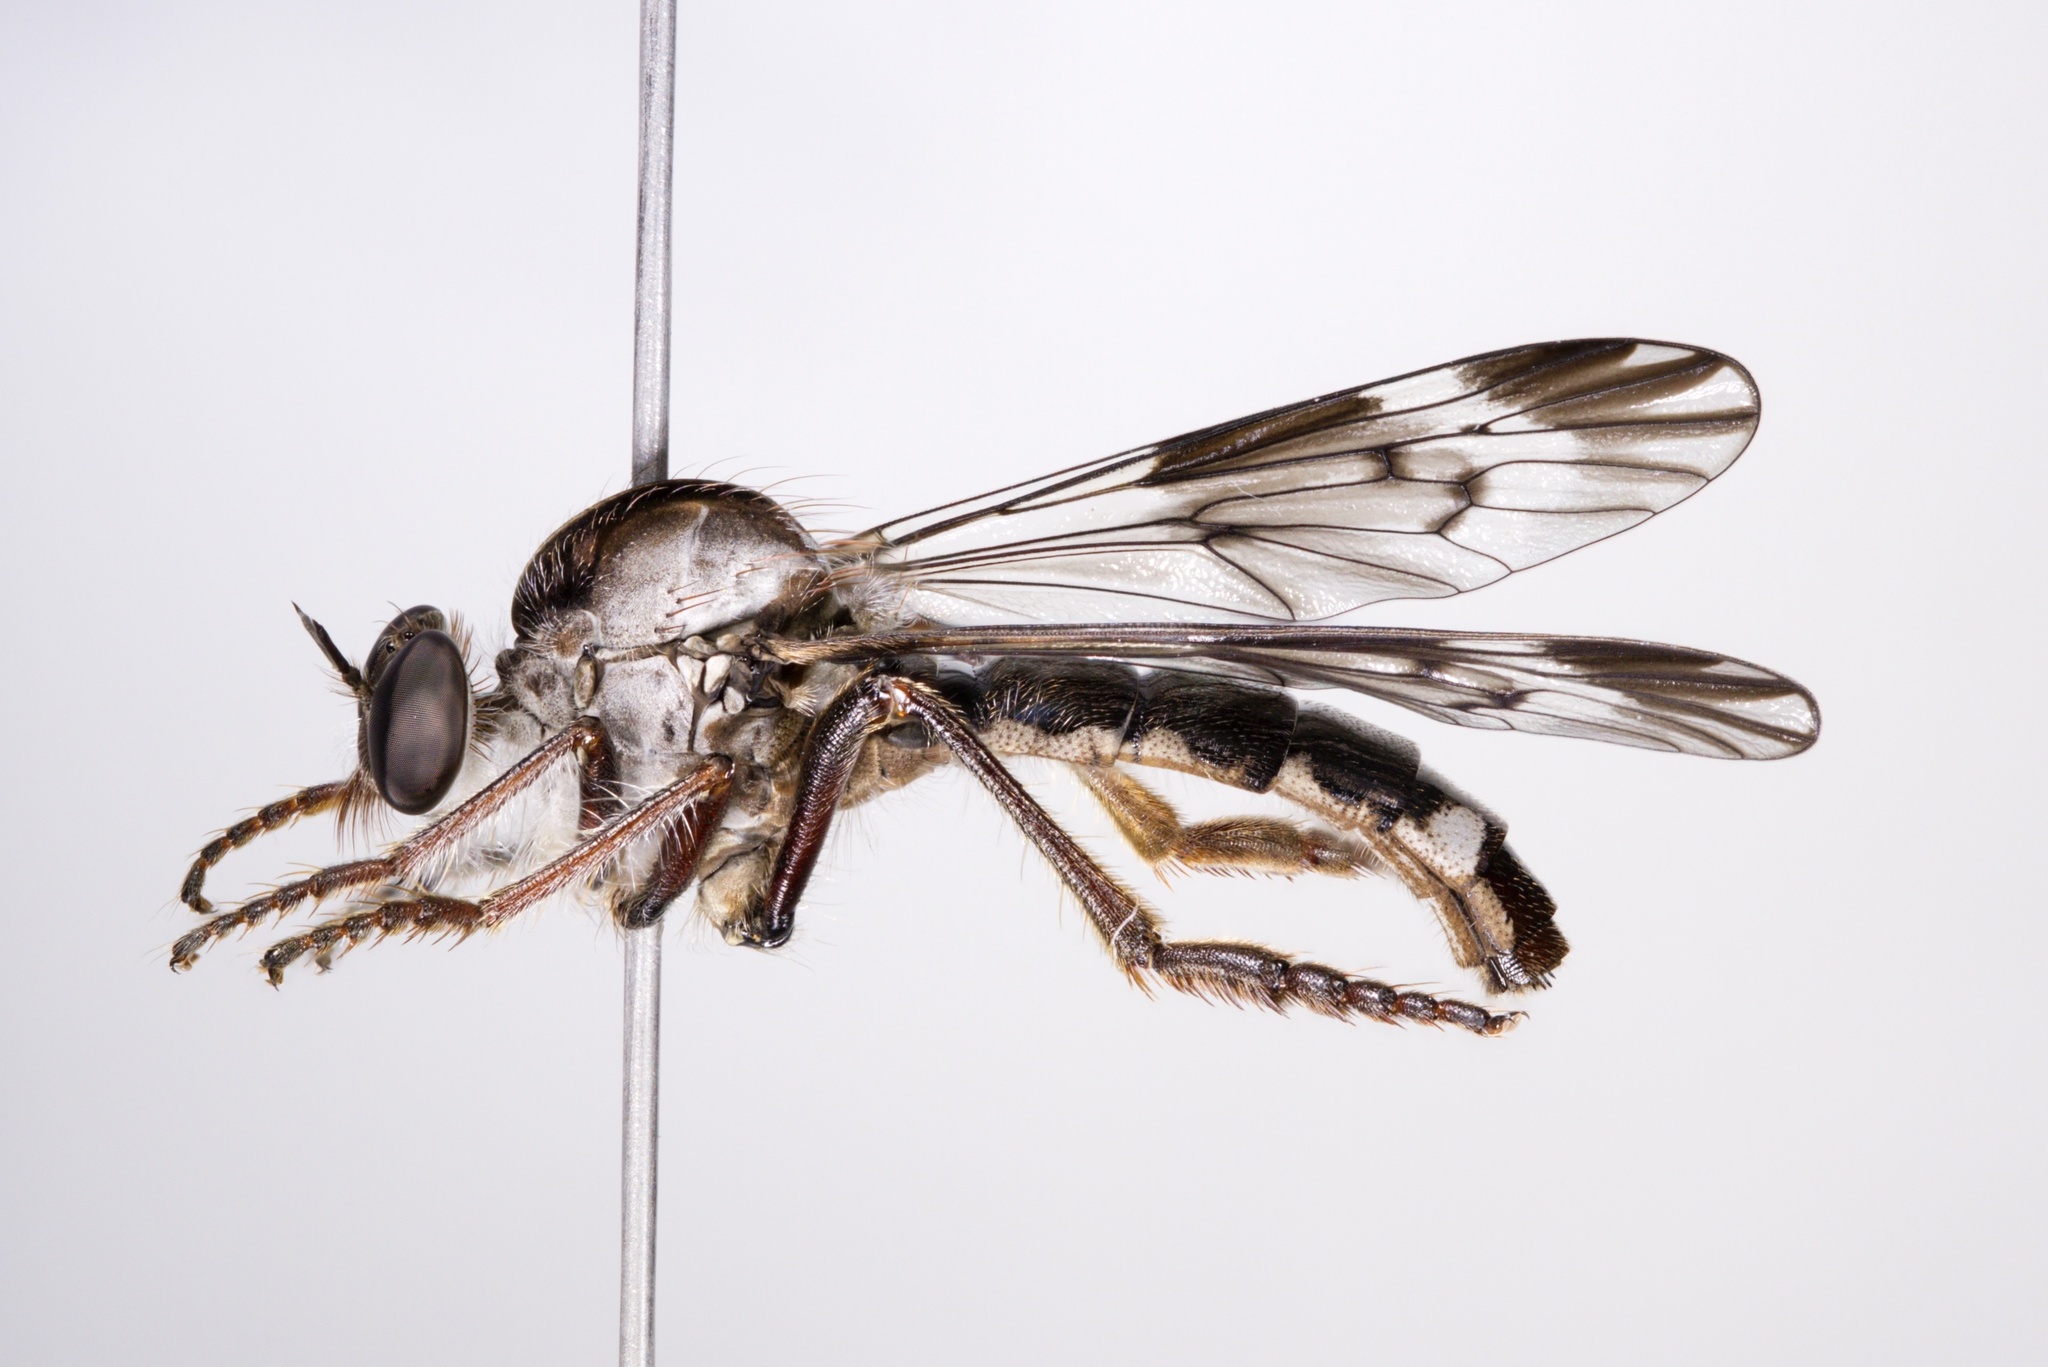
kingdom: Animalia
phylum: Arthropoda
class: Insecta
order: Diptera
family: Asilidae
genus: Nicocles
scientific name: Nicocles pictus
